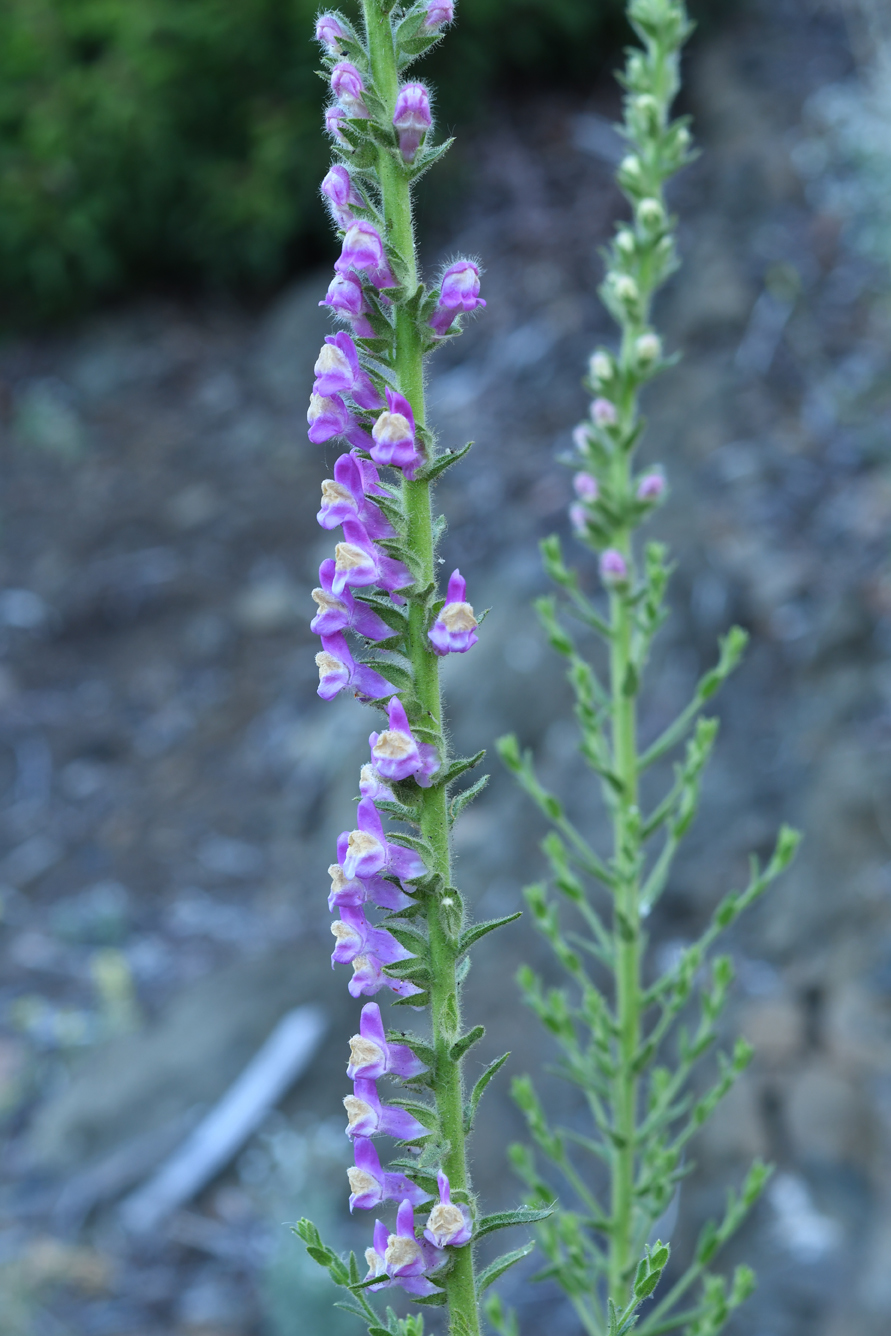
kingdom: Plantae
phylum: Tracheophyta
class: Magnoliopsida
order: Lamiales
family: Plantaginaceae
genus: Sairocarpus
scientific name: Sairocarpus multiflorus
